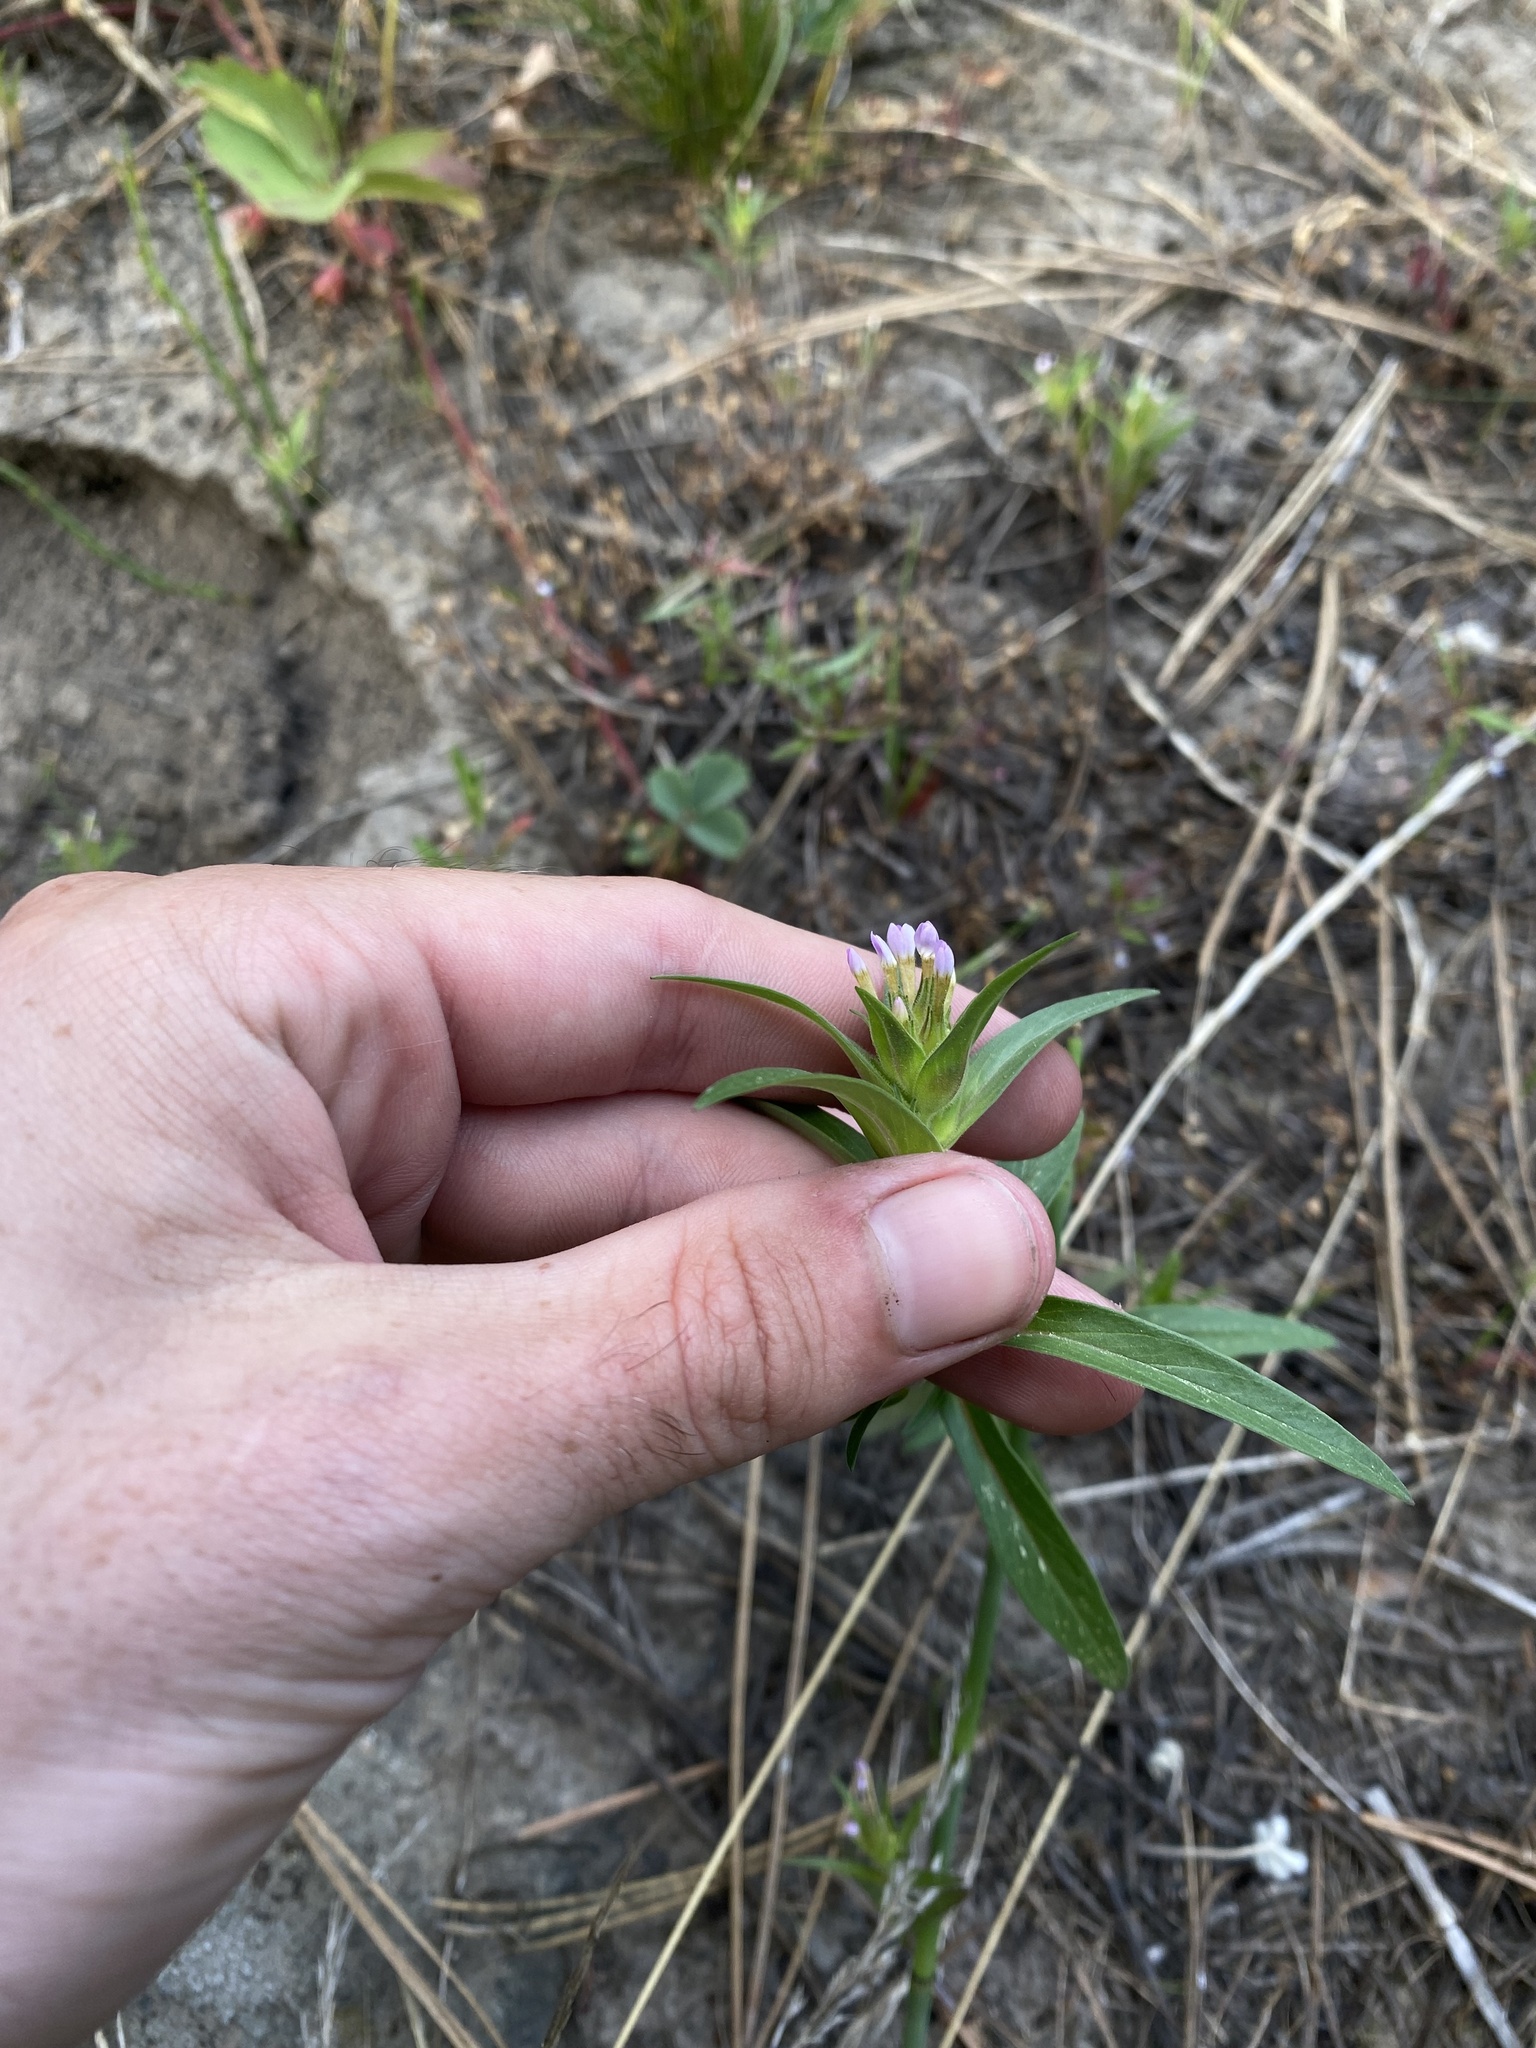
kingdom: Plantae
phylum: Tracheophyta
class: Magnoliopsida
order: Ericales
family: Polemoniaceae
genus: Collomia
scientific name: Collomia linearis
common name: Tiny trumpet
